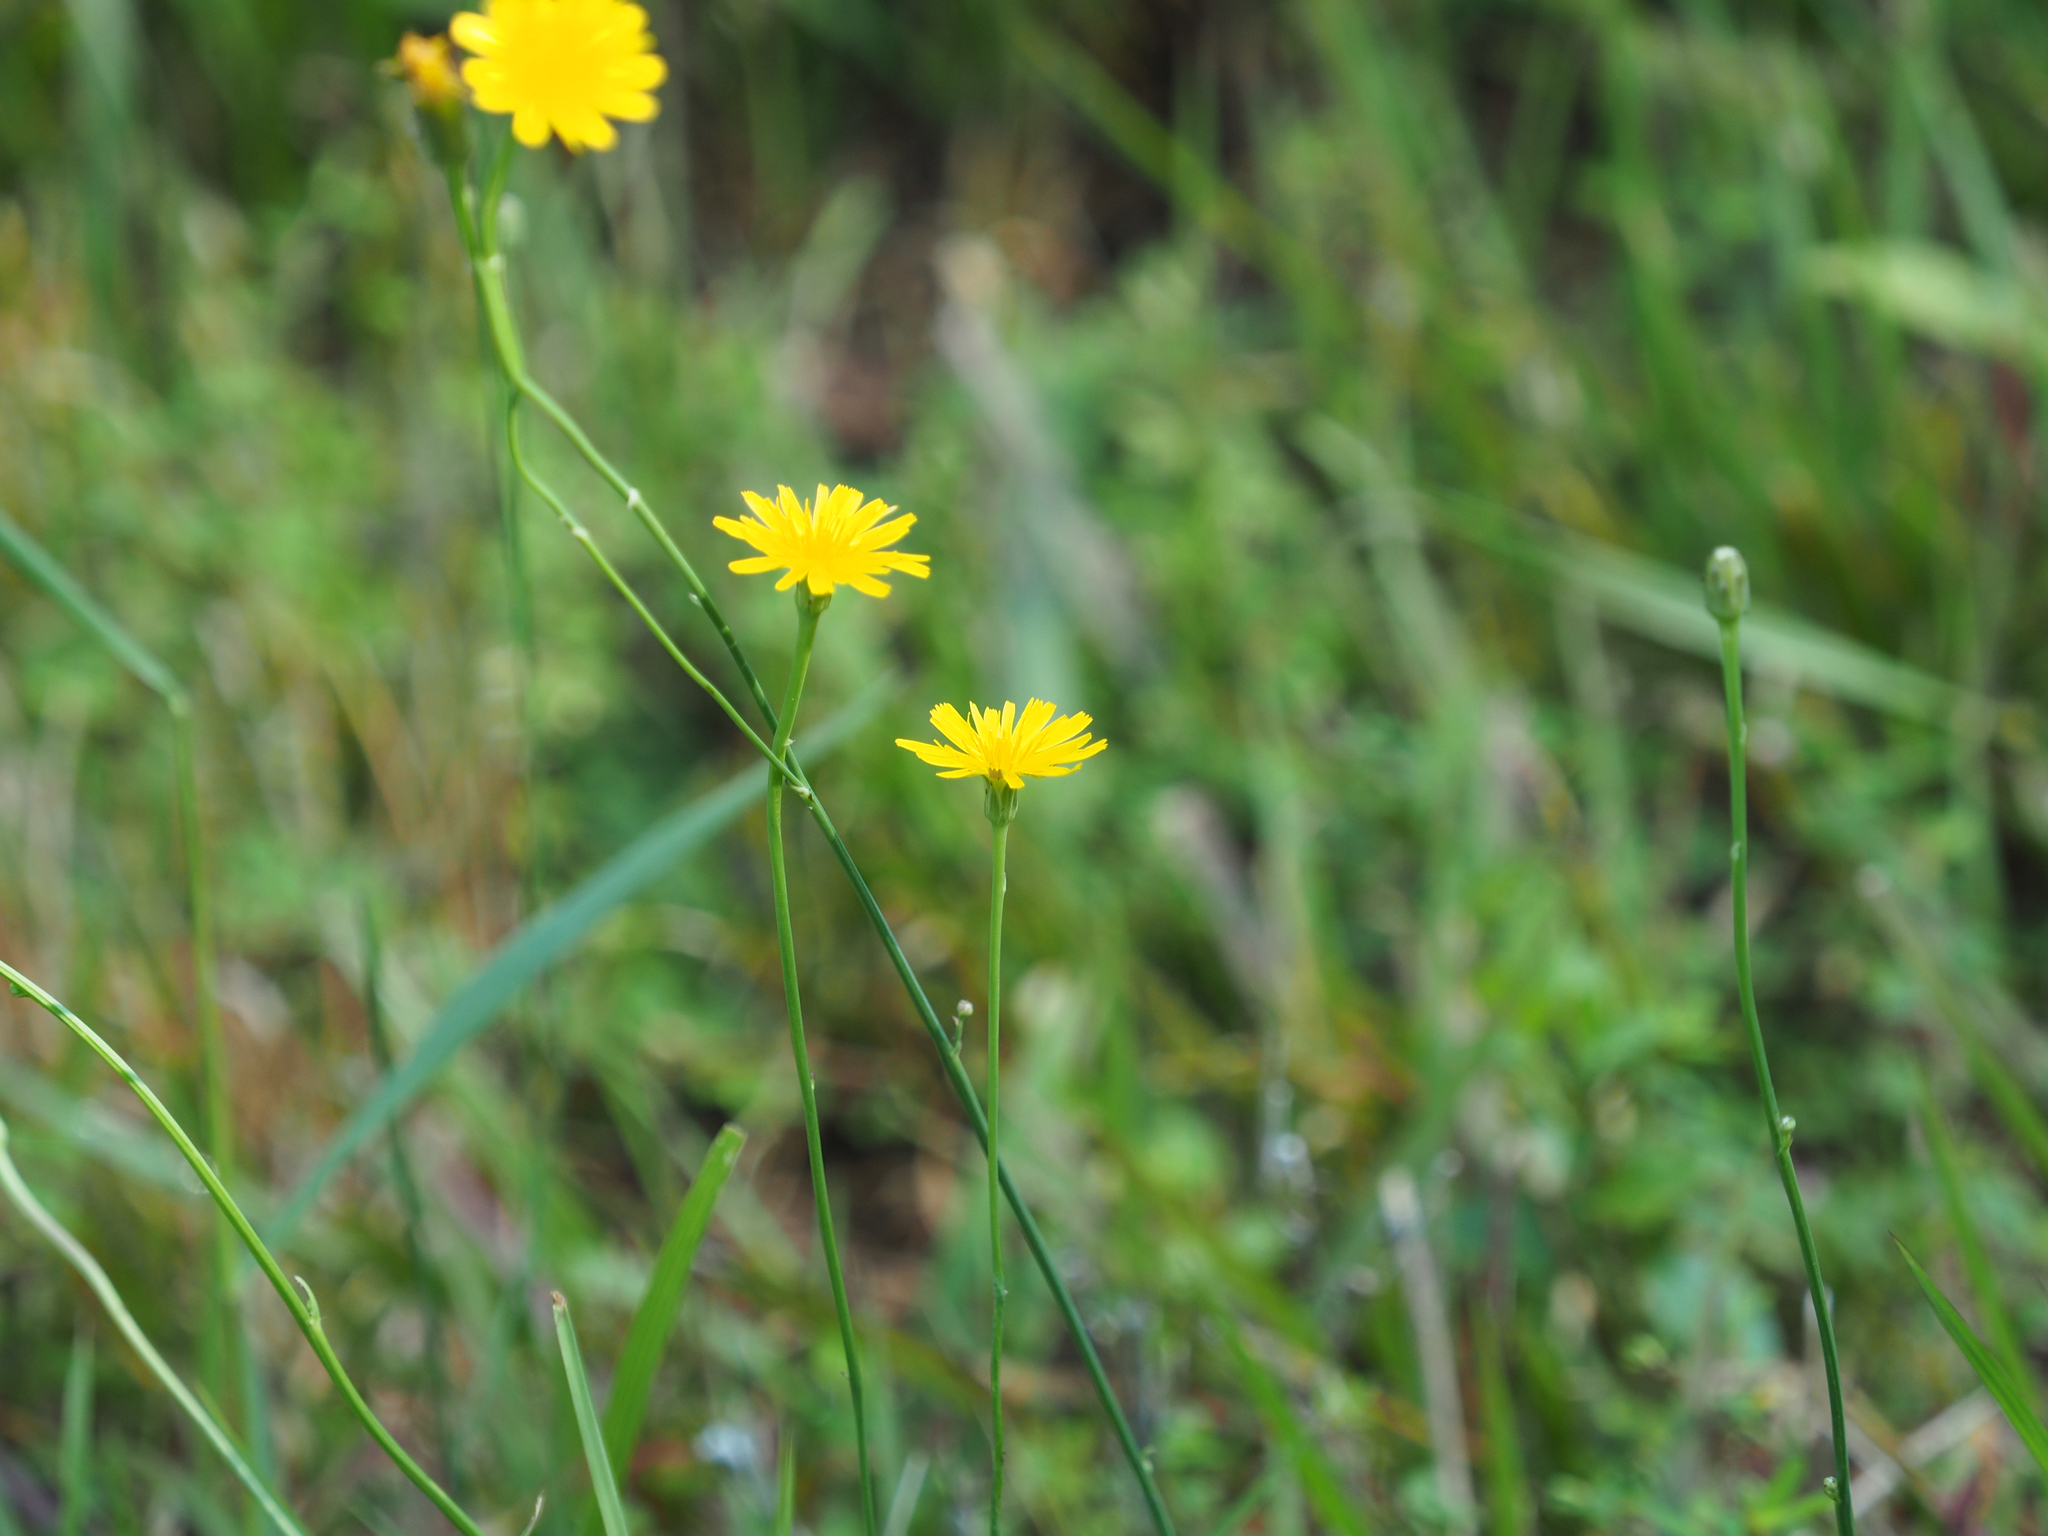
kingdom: Plantae
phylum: Tracheophyta
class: Magnoliopsida
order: Asterales
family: Asteraceae
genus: Hypochaeris
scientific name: Hypochaeris radicata
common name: Flatweed
